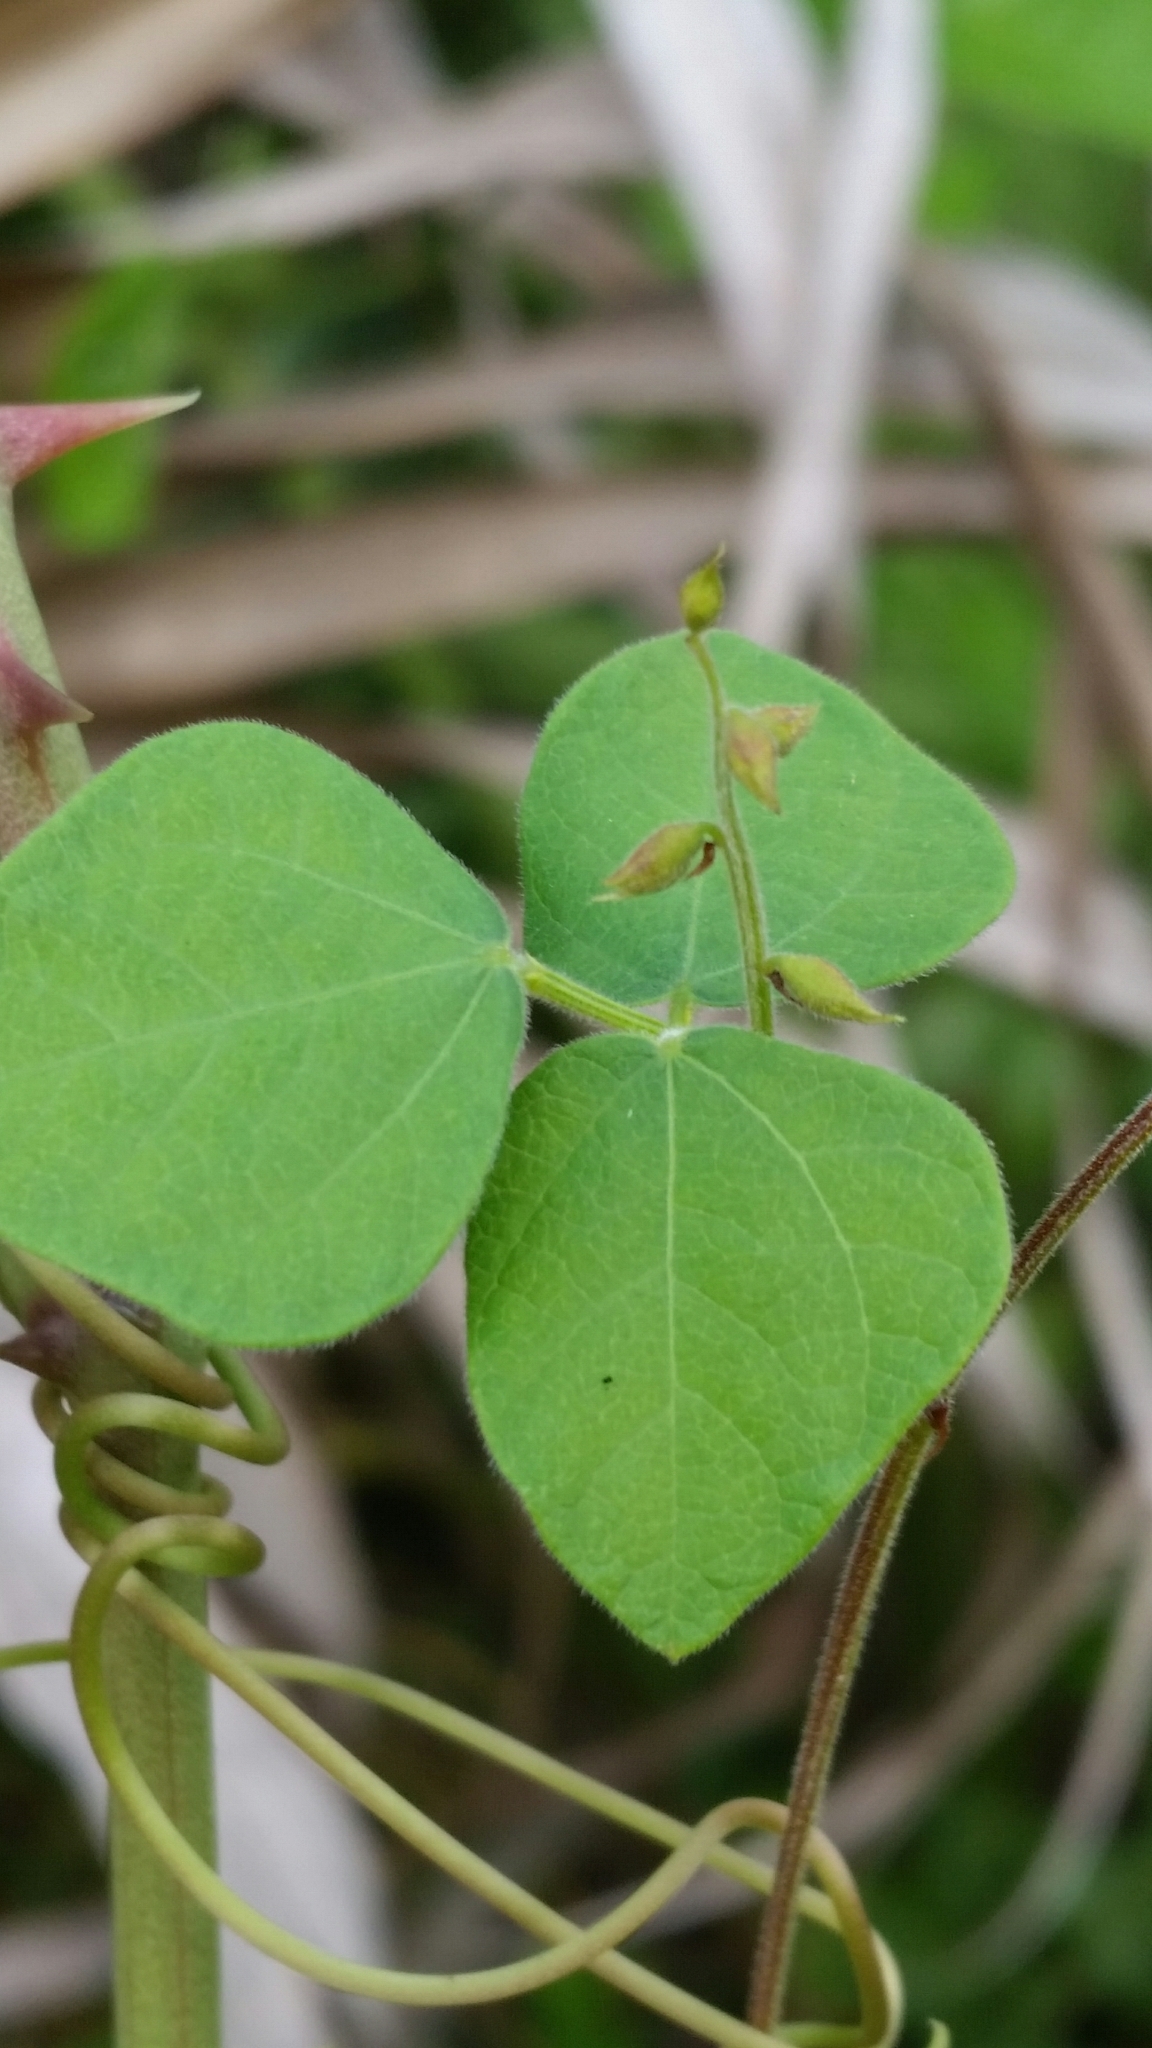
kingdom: Plantae
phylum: Tracheophyta
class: Magnoliopsida
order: Fabales
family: Fabaceae
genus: Rhynchosia
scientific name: Rhynchosia minima
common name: Least snoutbean
